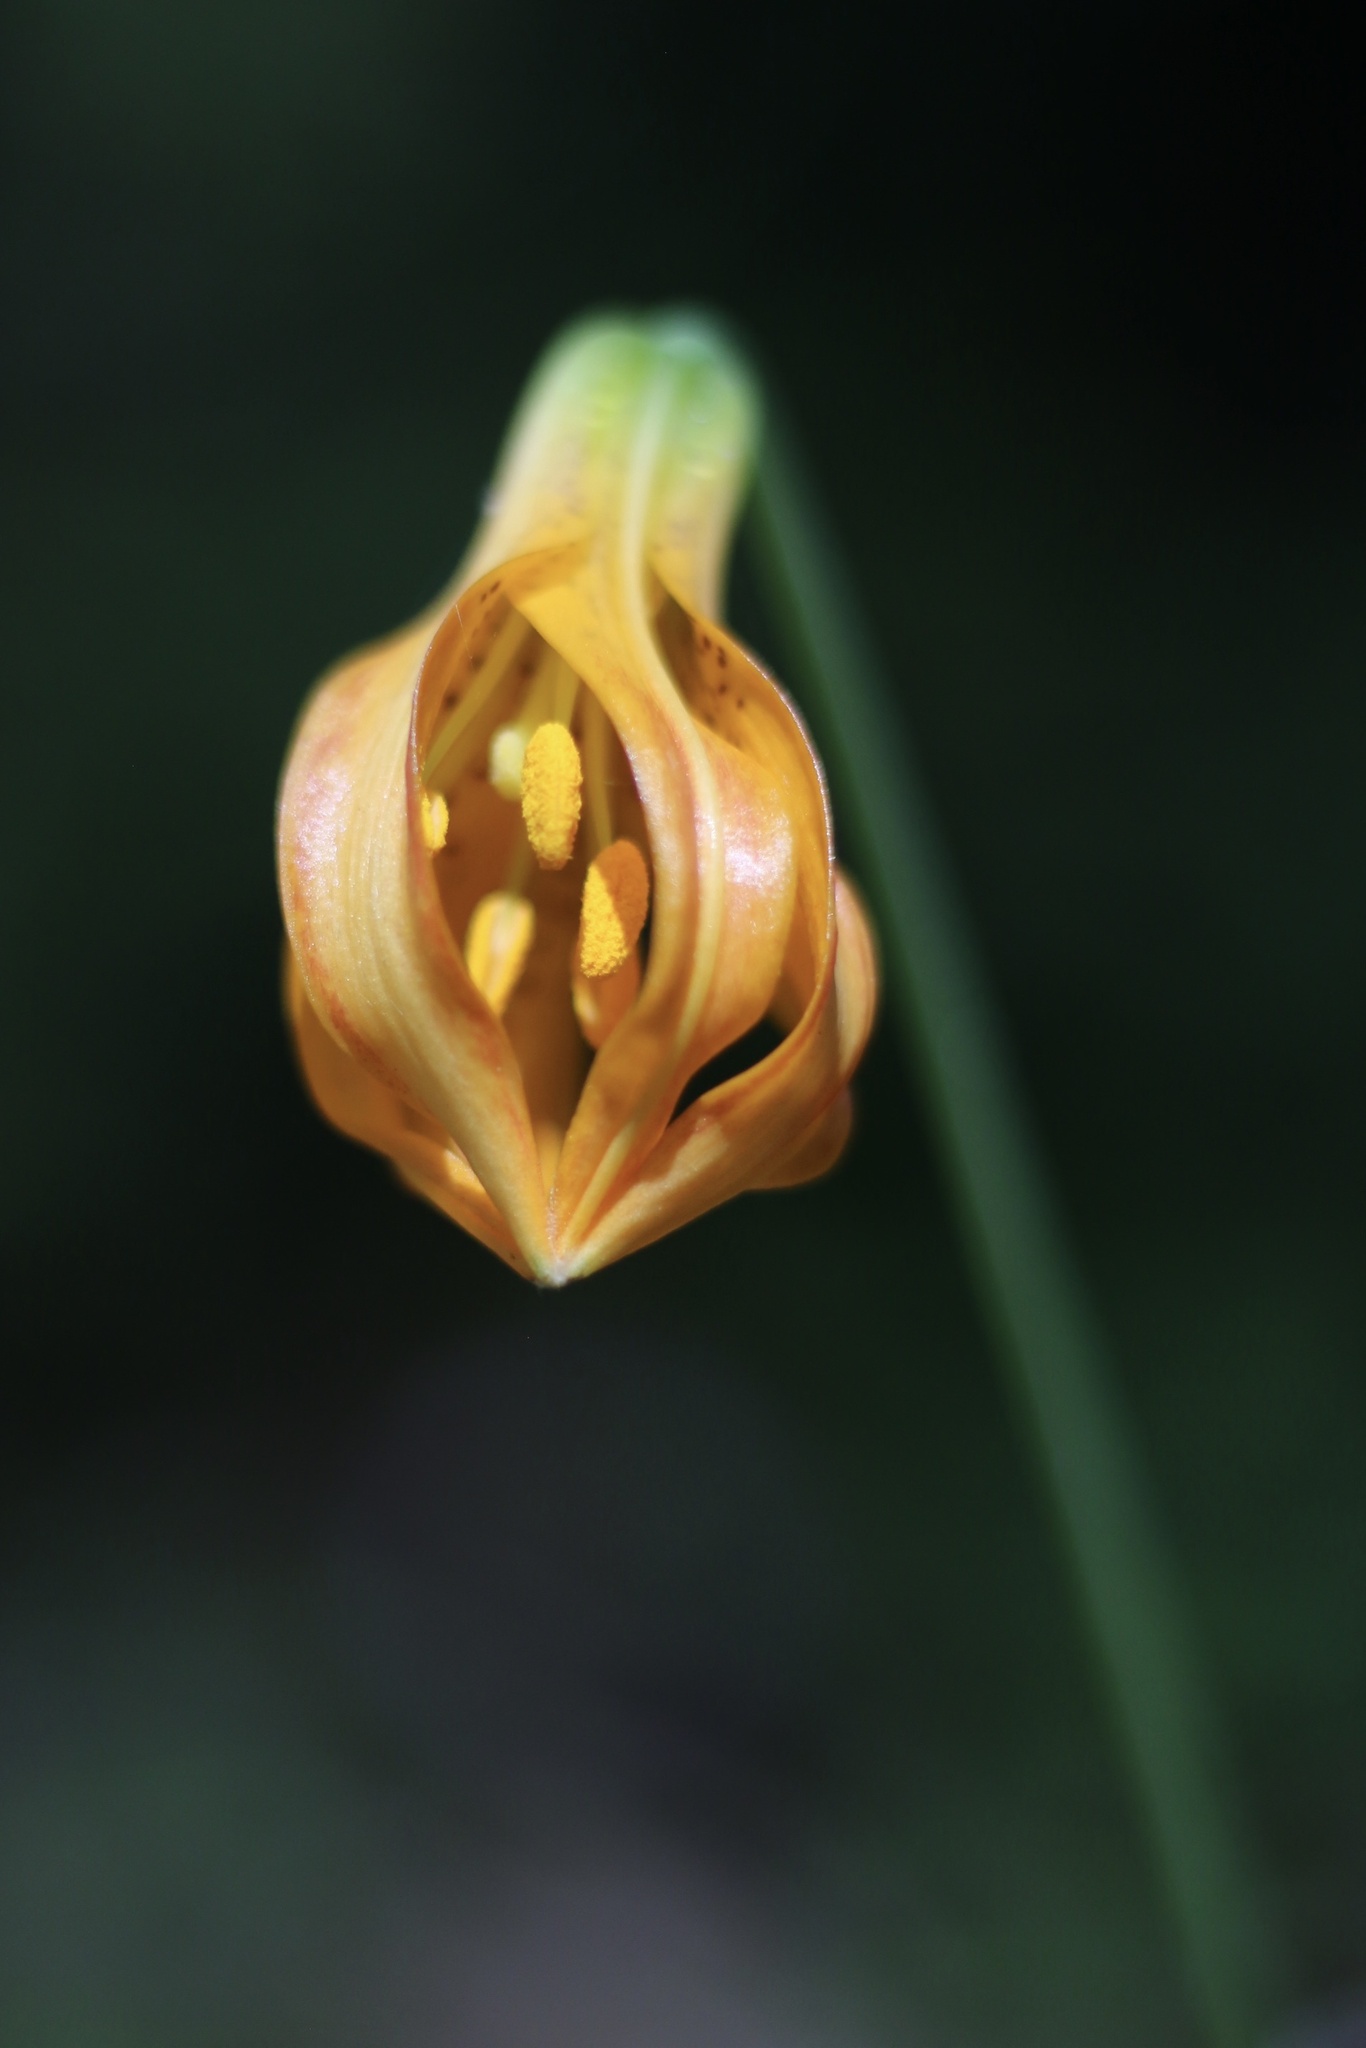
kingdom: Plantae
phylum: Tracheophyta
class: Liliopsida
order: Liliales
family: Liliaceae
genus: Lilium
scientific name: Lilium columbianum
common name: Columbia lily
